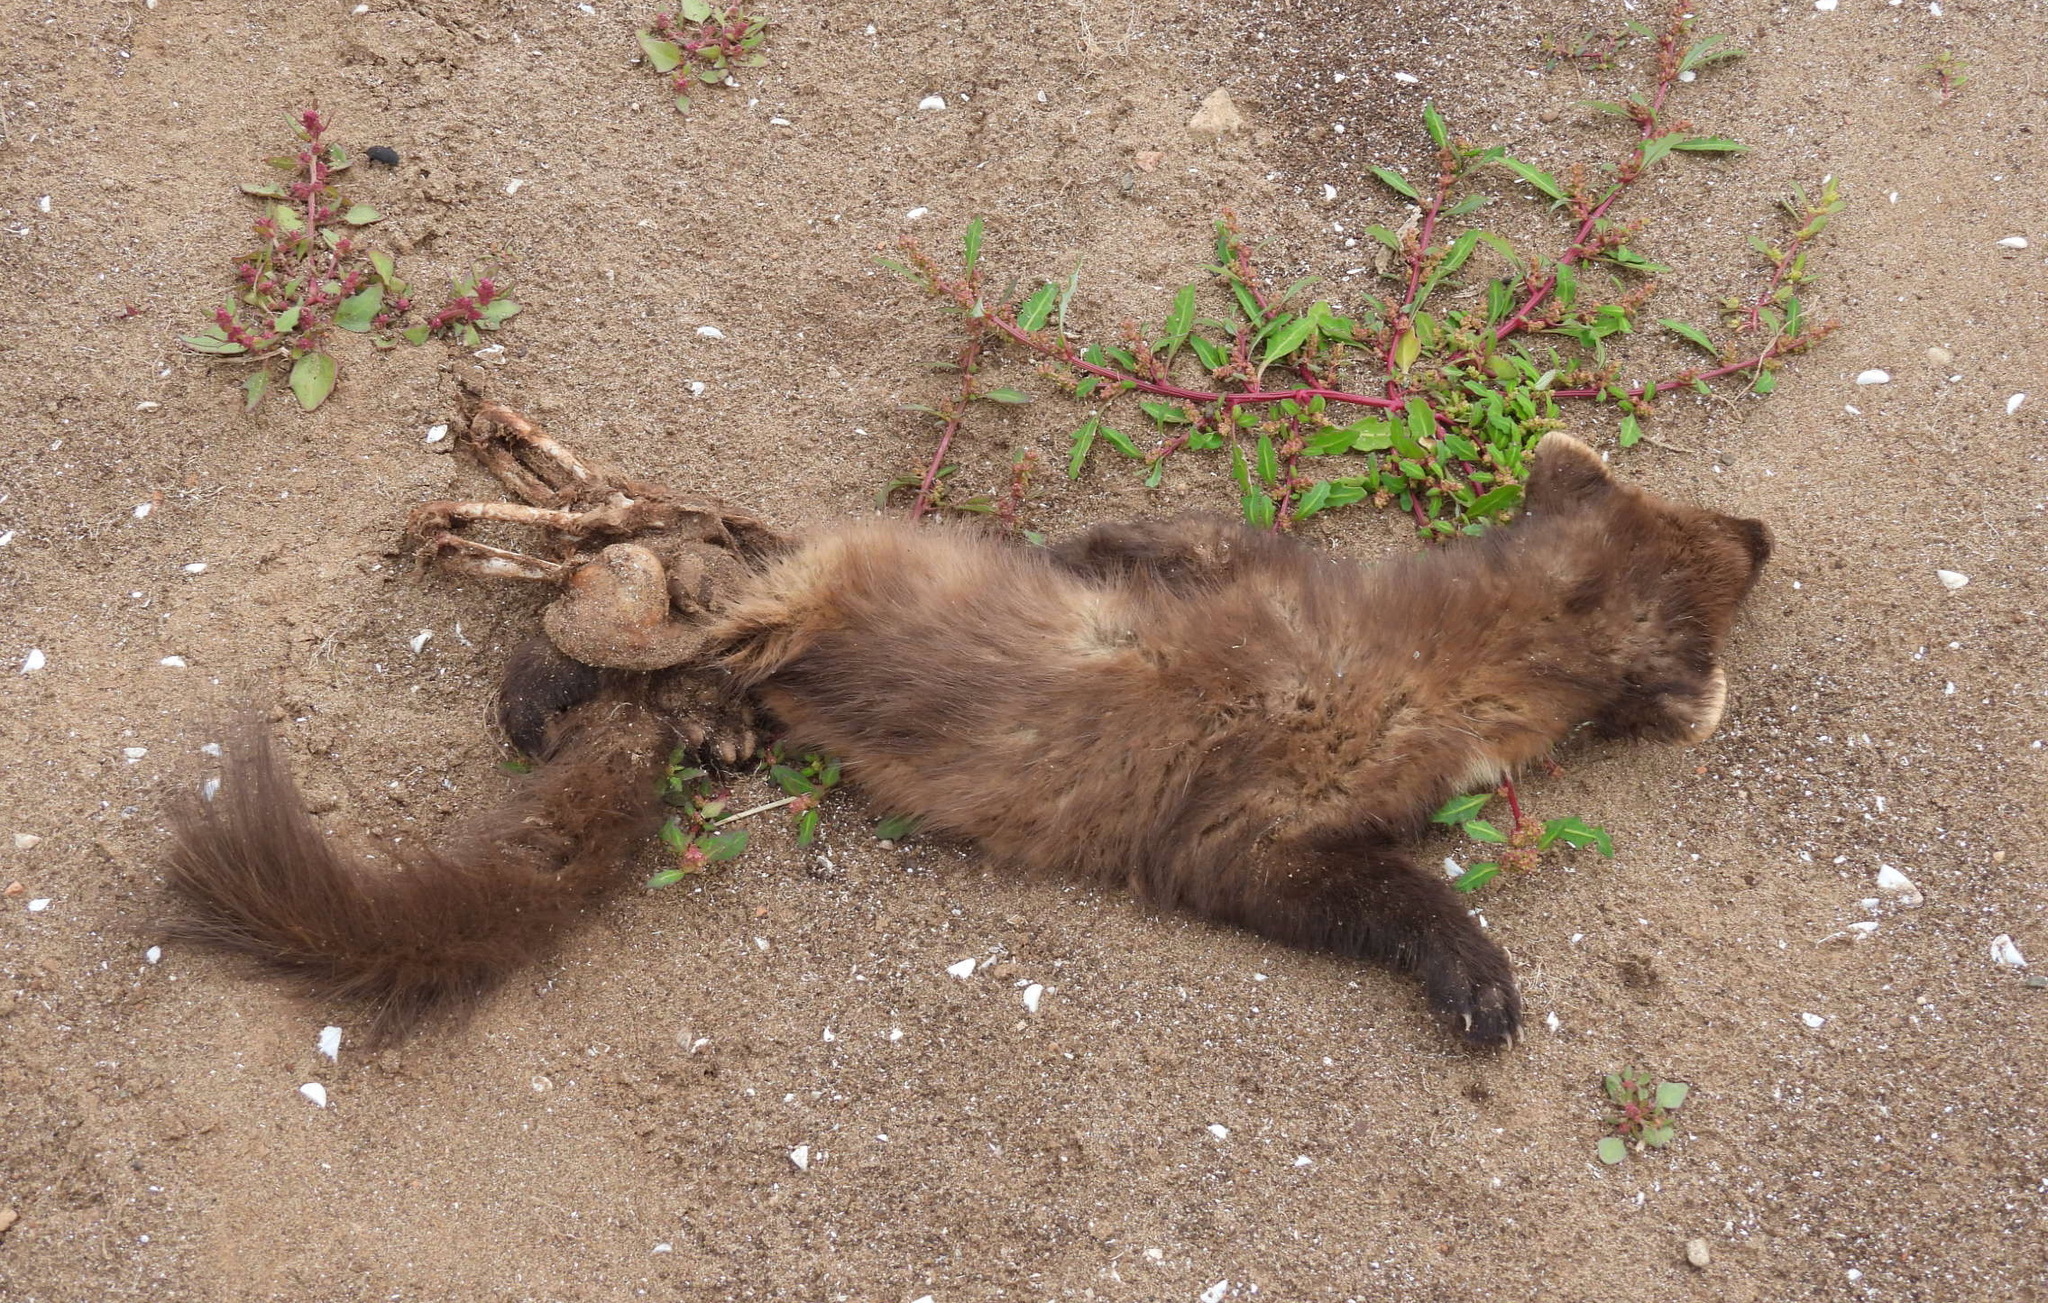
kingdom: Animalia
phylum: Chordata
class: Mammalia
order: Carnivora
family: Mustelidae
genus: Martes
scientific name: Martes martes
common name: European pine marten
